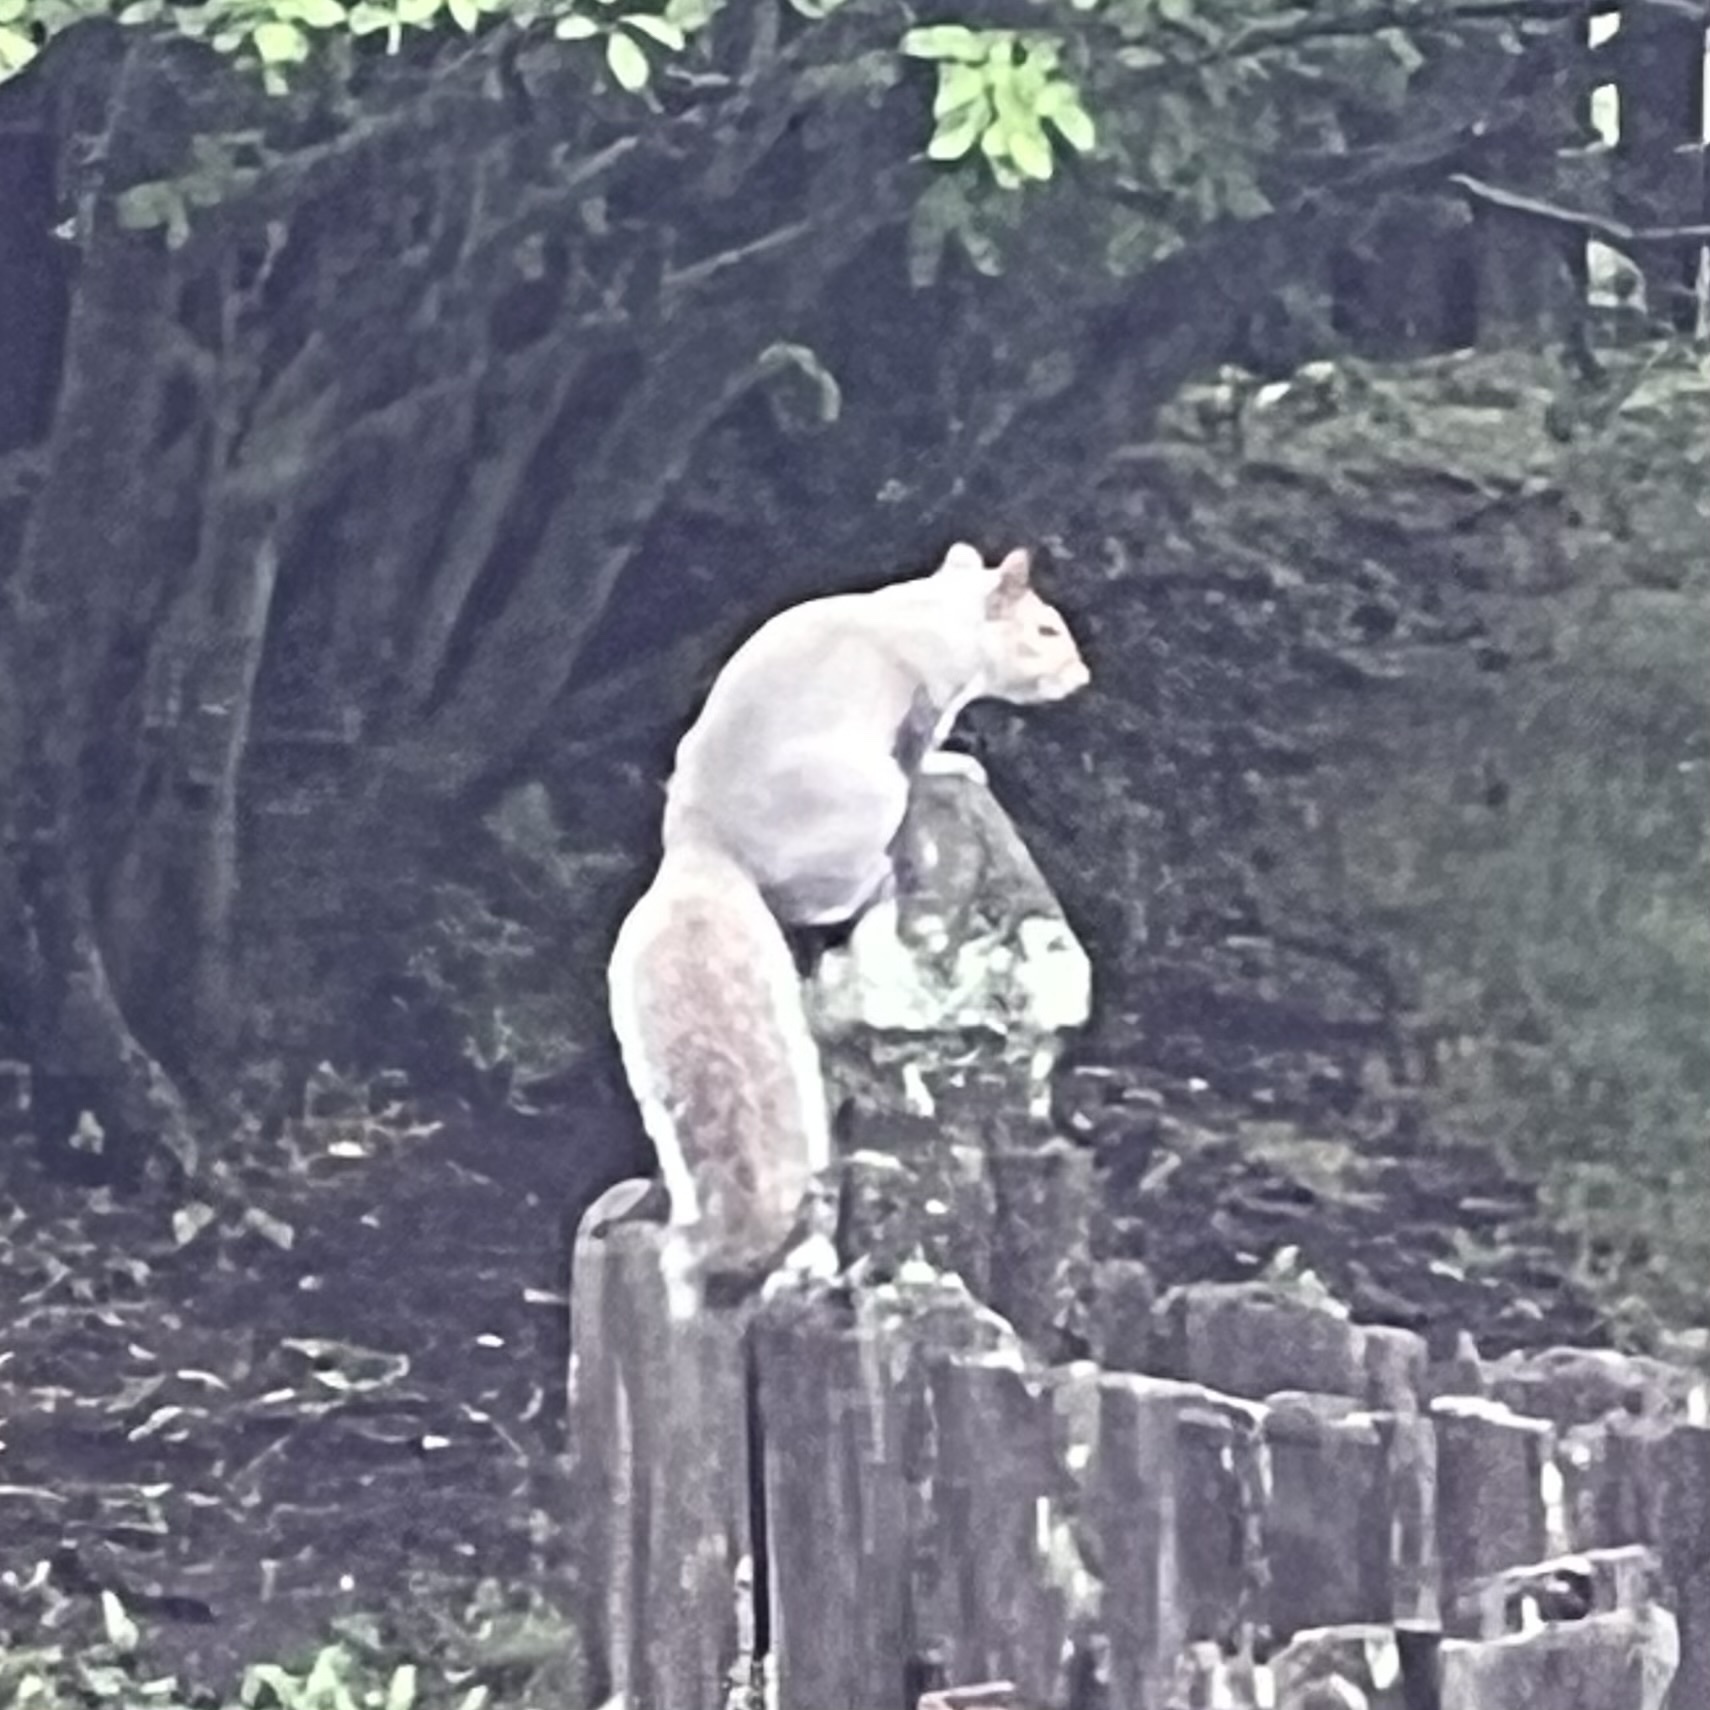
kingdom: Animalia
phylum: Chordata
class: Mammalia
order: Rodentia
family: Sciuridae
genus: Sciurus
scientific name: Sciurus carolinensis
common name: Eastern gray squirrel
